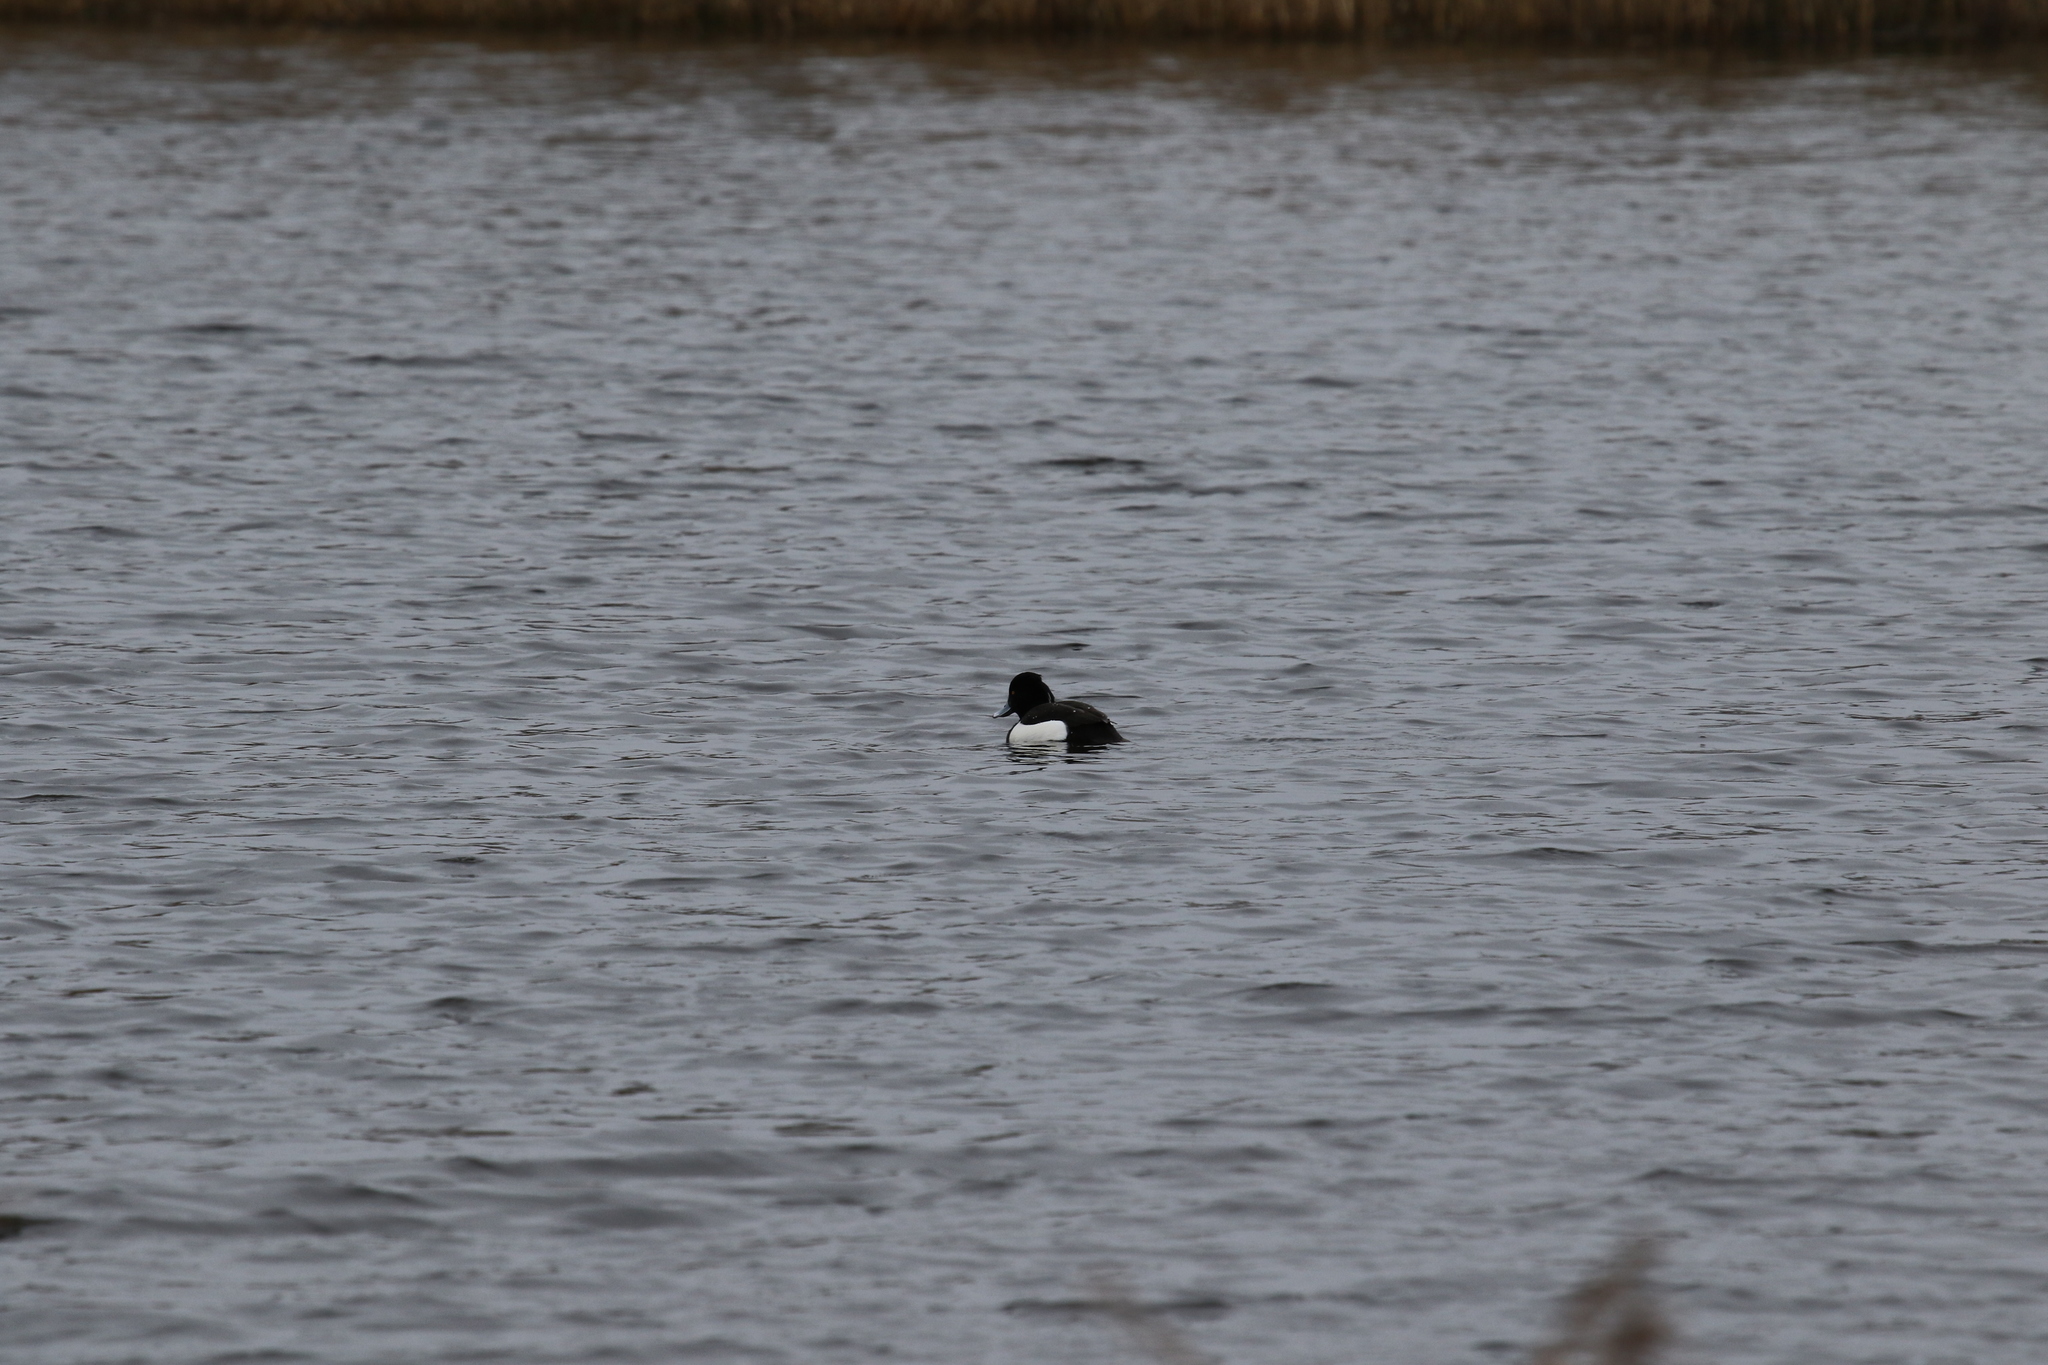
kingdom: Animalia
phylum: Chordata
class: Aves
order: Anseriformes
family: Anatidae
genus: Aythya
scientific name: Aythya fuligula
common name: Tufted duck
